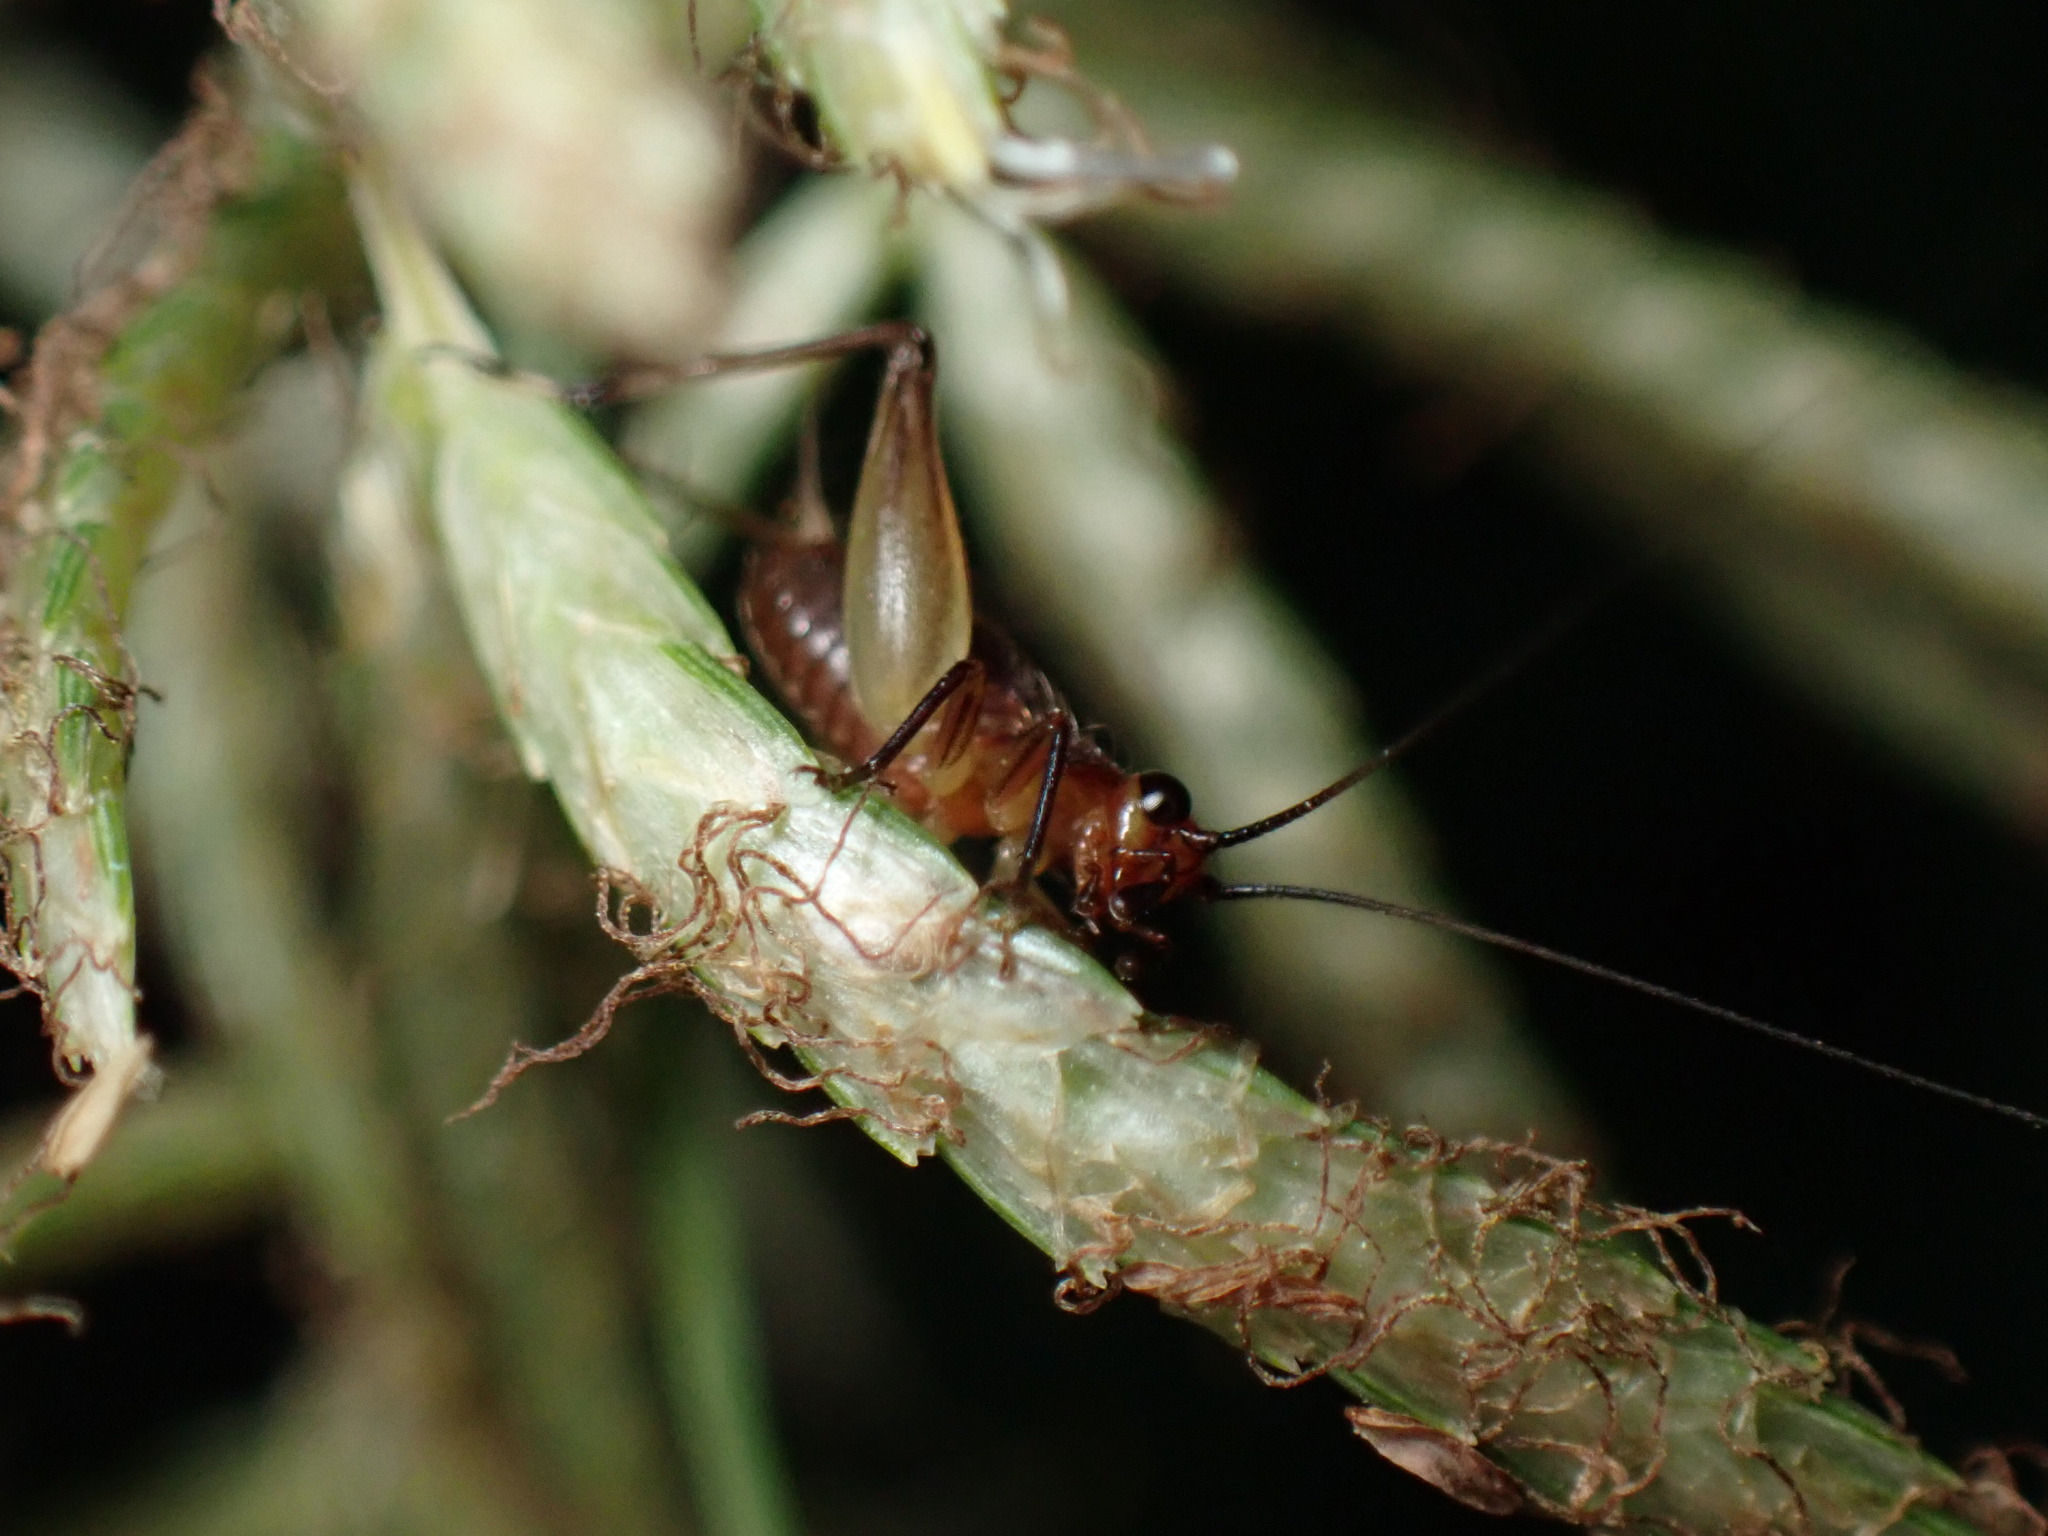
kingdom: Animalia
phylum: Arthropoda
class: Insecta
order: Orthoptera
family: Trigonidiidae
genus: Trigonidium
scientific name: Trigonidium cicindeloides
